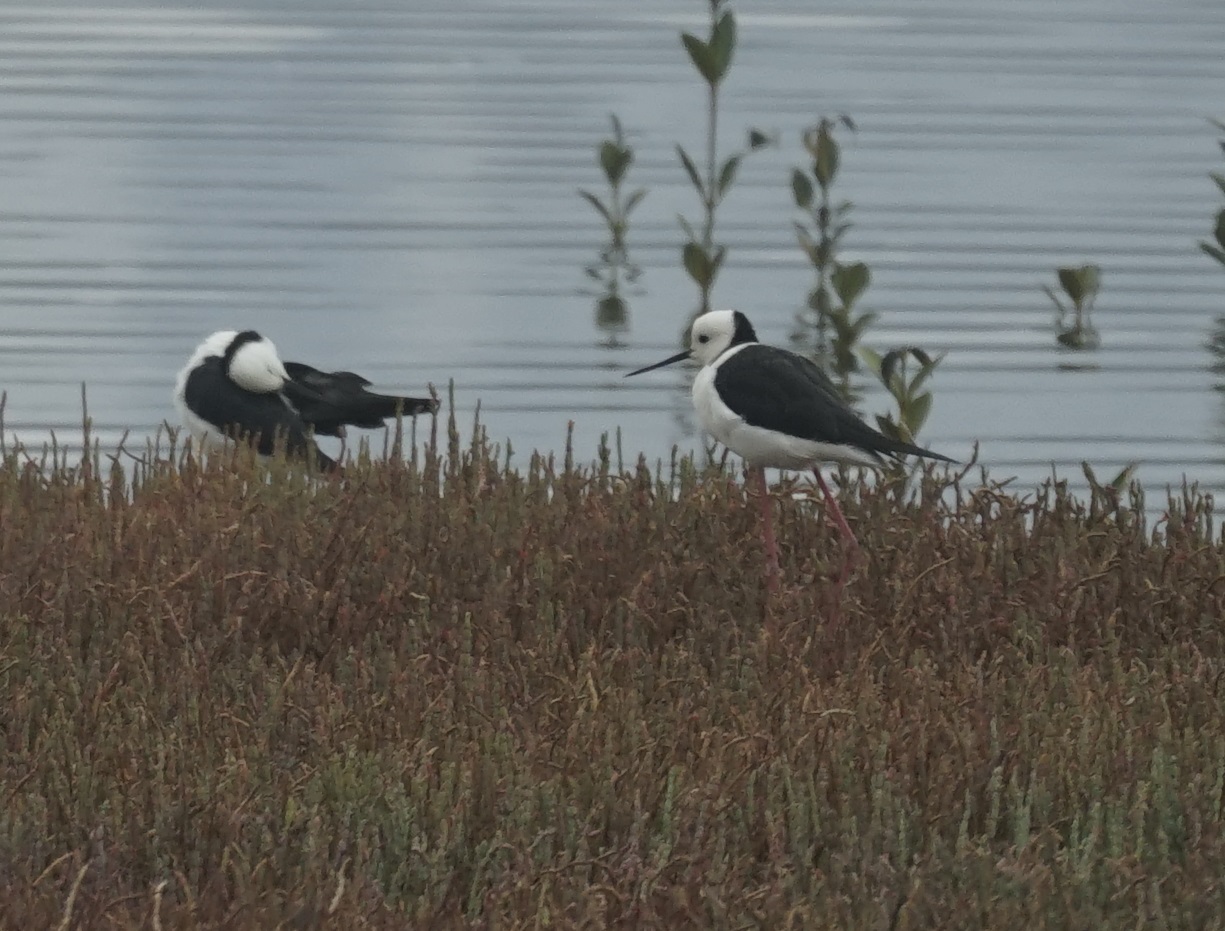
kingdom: Animalia
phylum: Chordata
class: Aves
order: Charadriiformes
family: Recurvirostridae
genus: Himantopus
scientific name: Himantopus leucocephalus
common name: White-headed stilt
